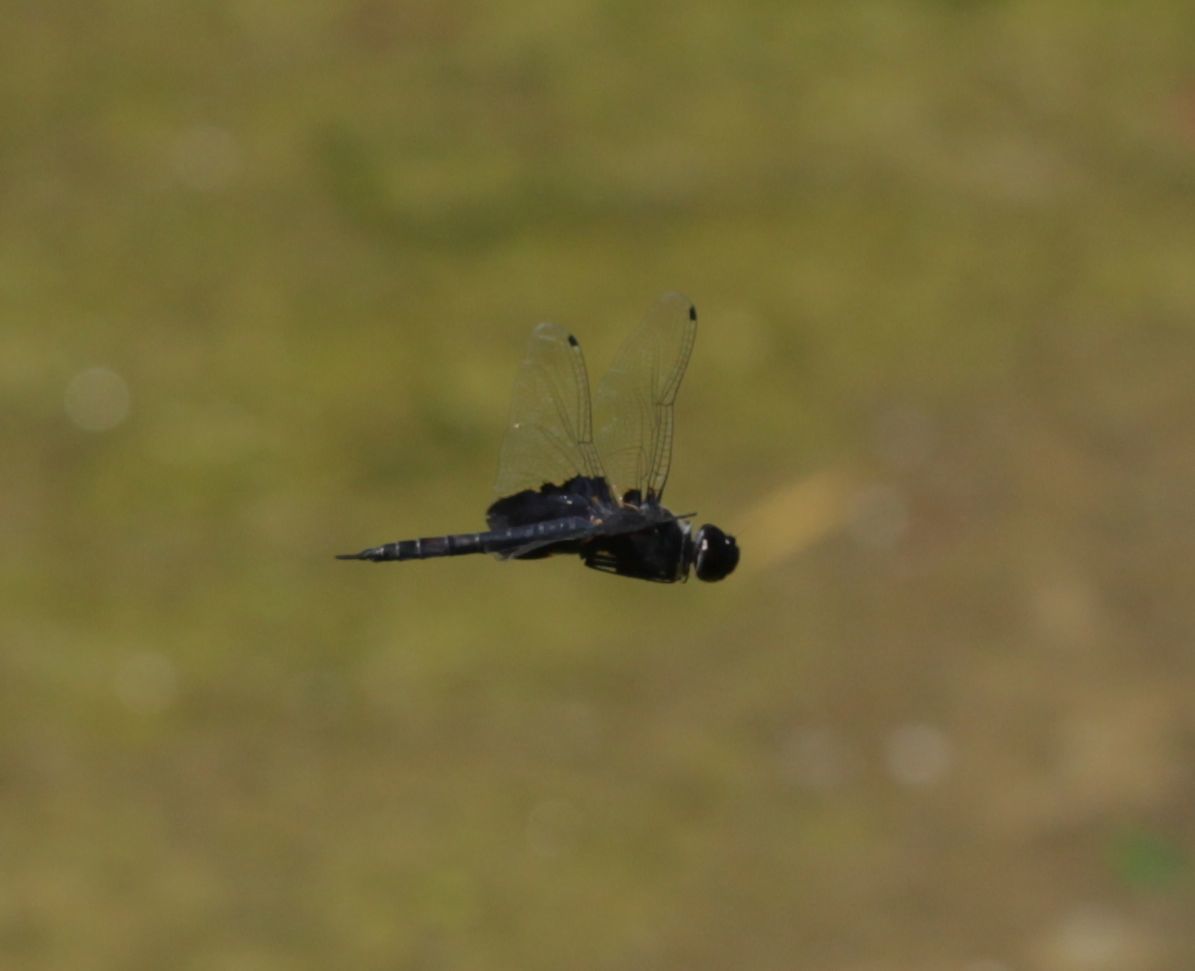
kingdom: Animalia
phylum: Arthropoda
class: Insecta
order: Odonata
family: Libellulidae
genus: Tramea
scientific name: Tramea lacerata
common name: Black saddlebags
